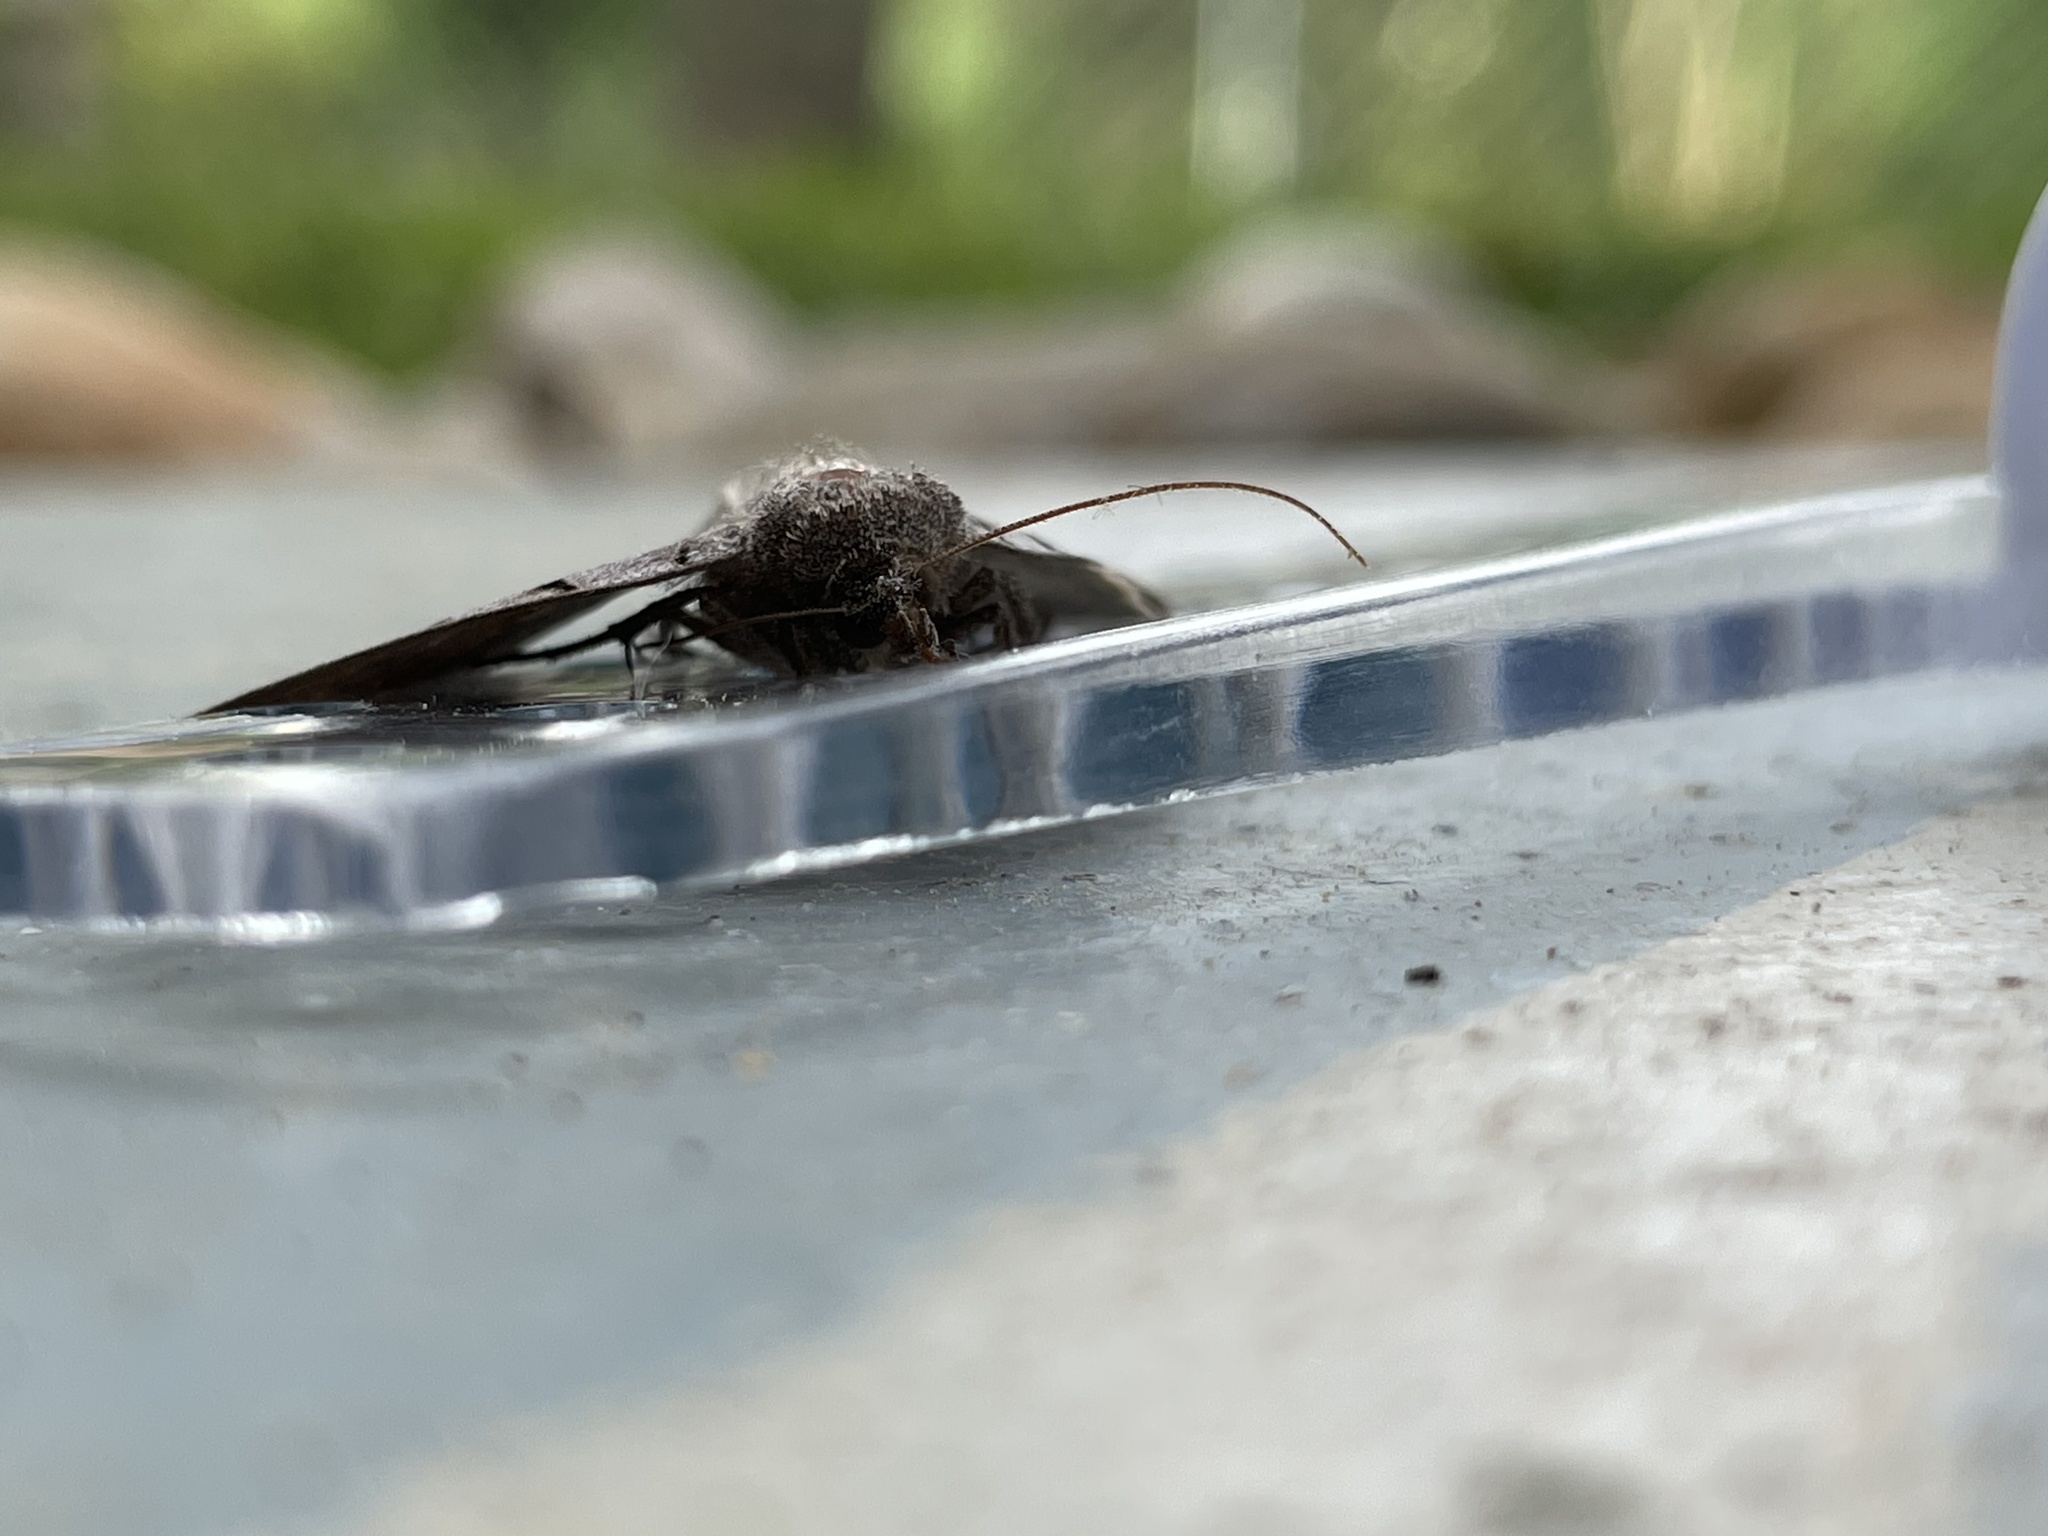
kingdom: Animalia
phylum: Arthropoda
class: Insecta
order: Lepidoptera
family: Erebidae
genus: Celiptera
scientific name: Celiptera frustulum
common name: Black bit moth
